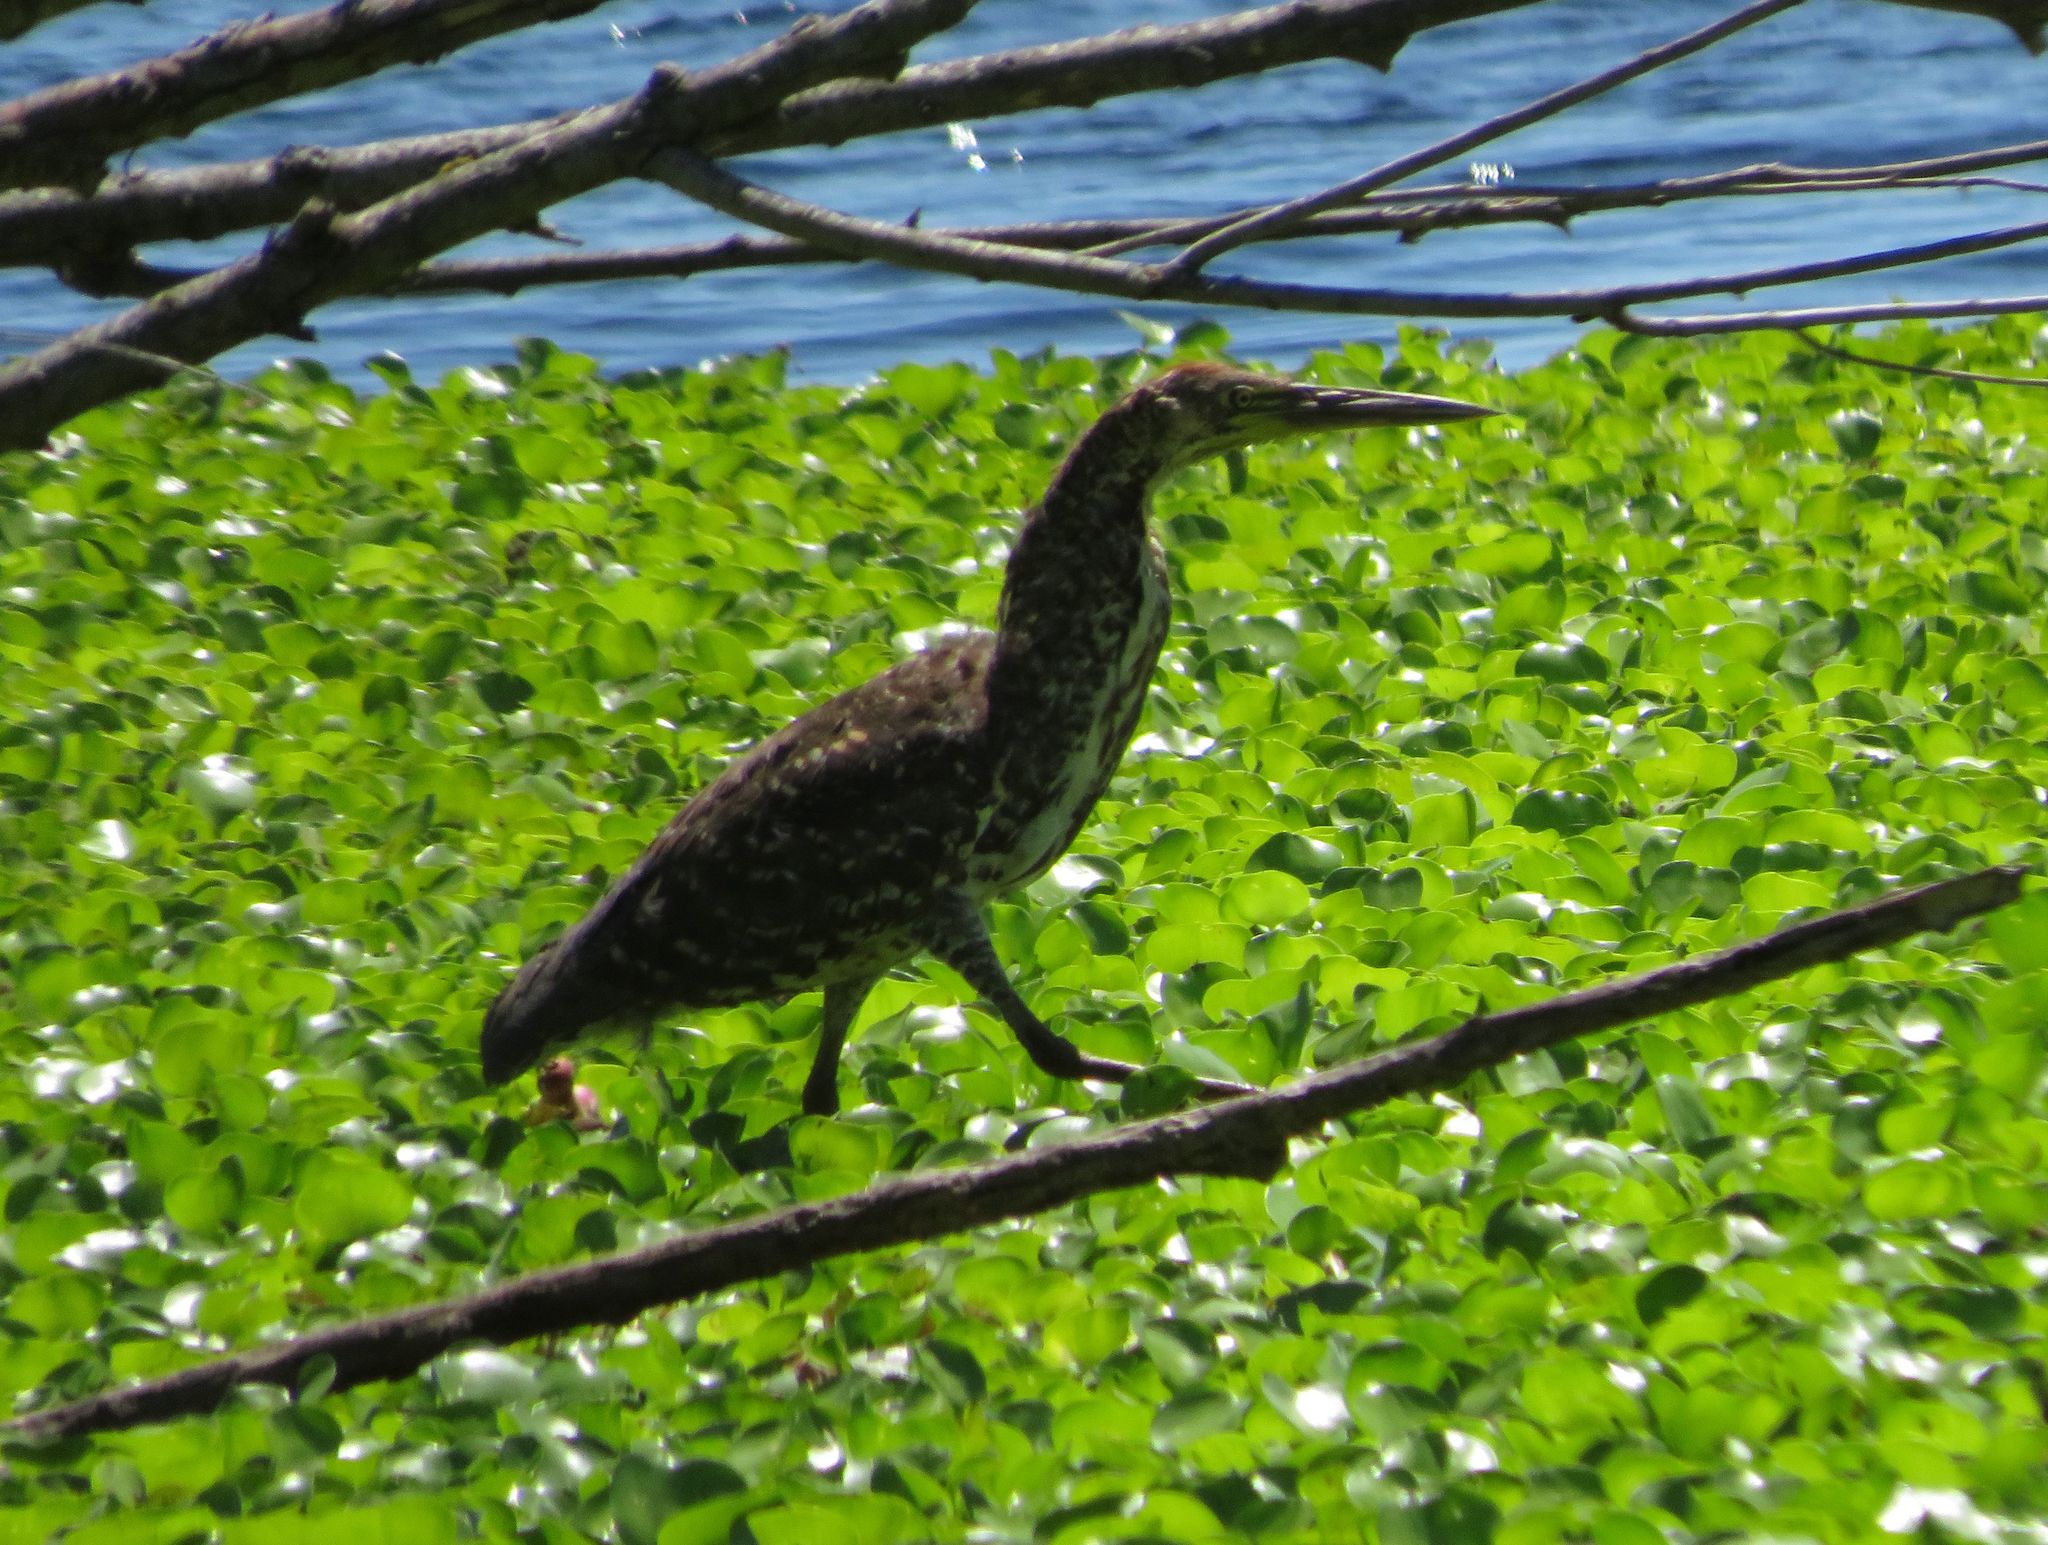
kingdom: Animalia
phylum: Chordata
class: Aves
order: Pelecaniformes
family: Ardeidae
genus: Tigrisoma
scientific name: Tigrisoma lineatum
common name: Rufescent tiger-heron
